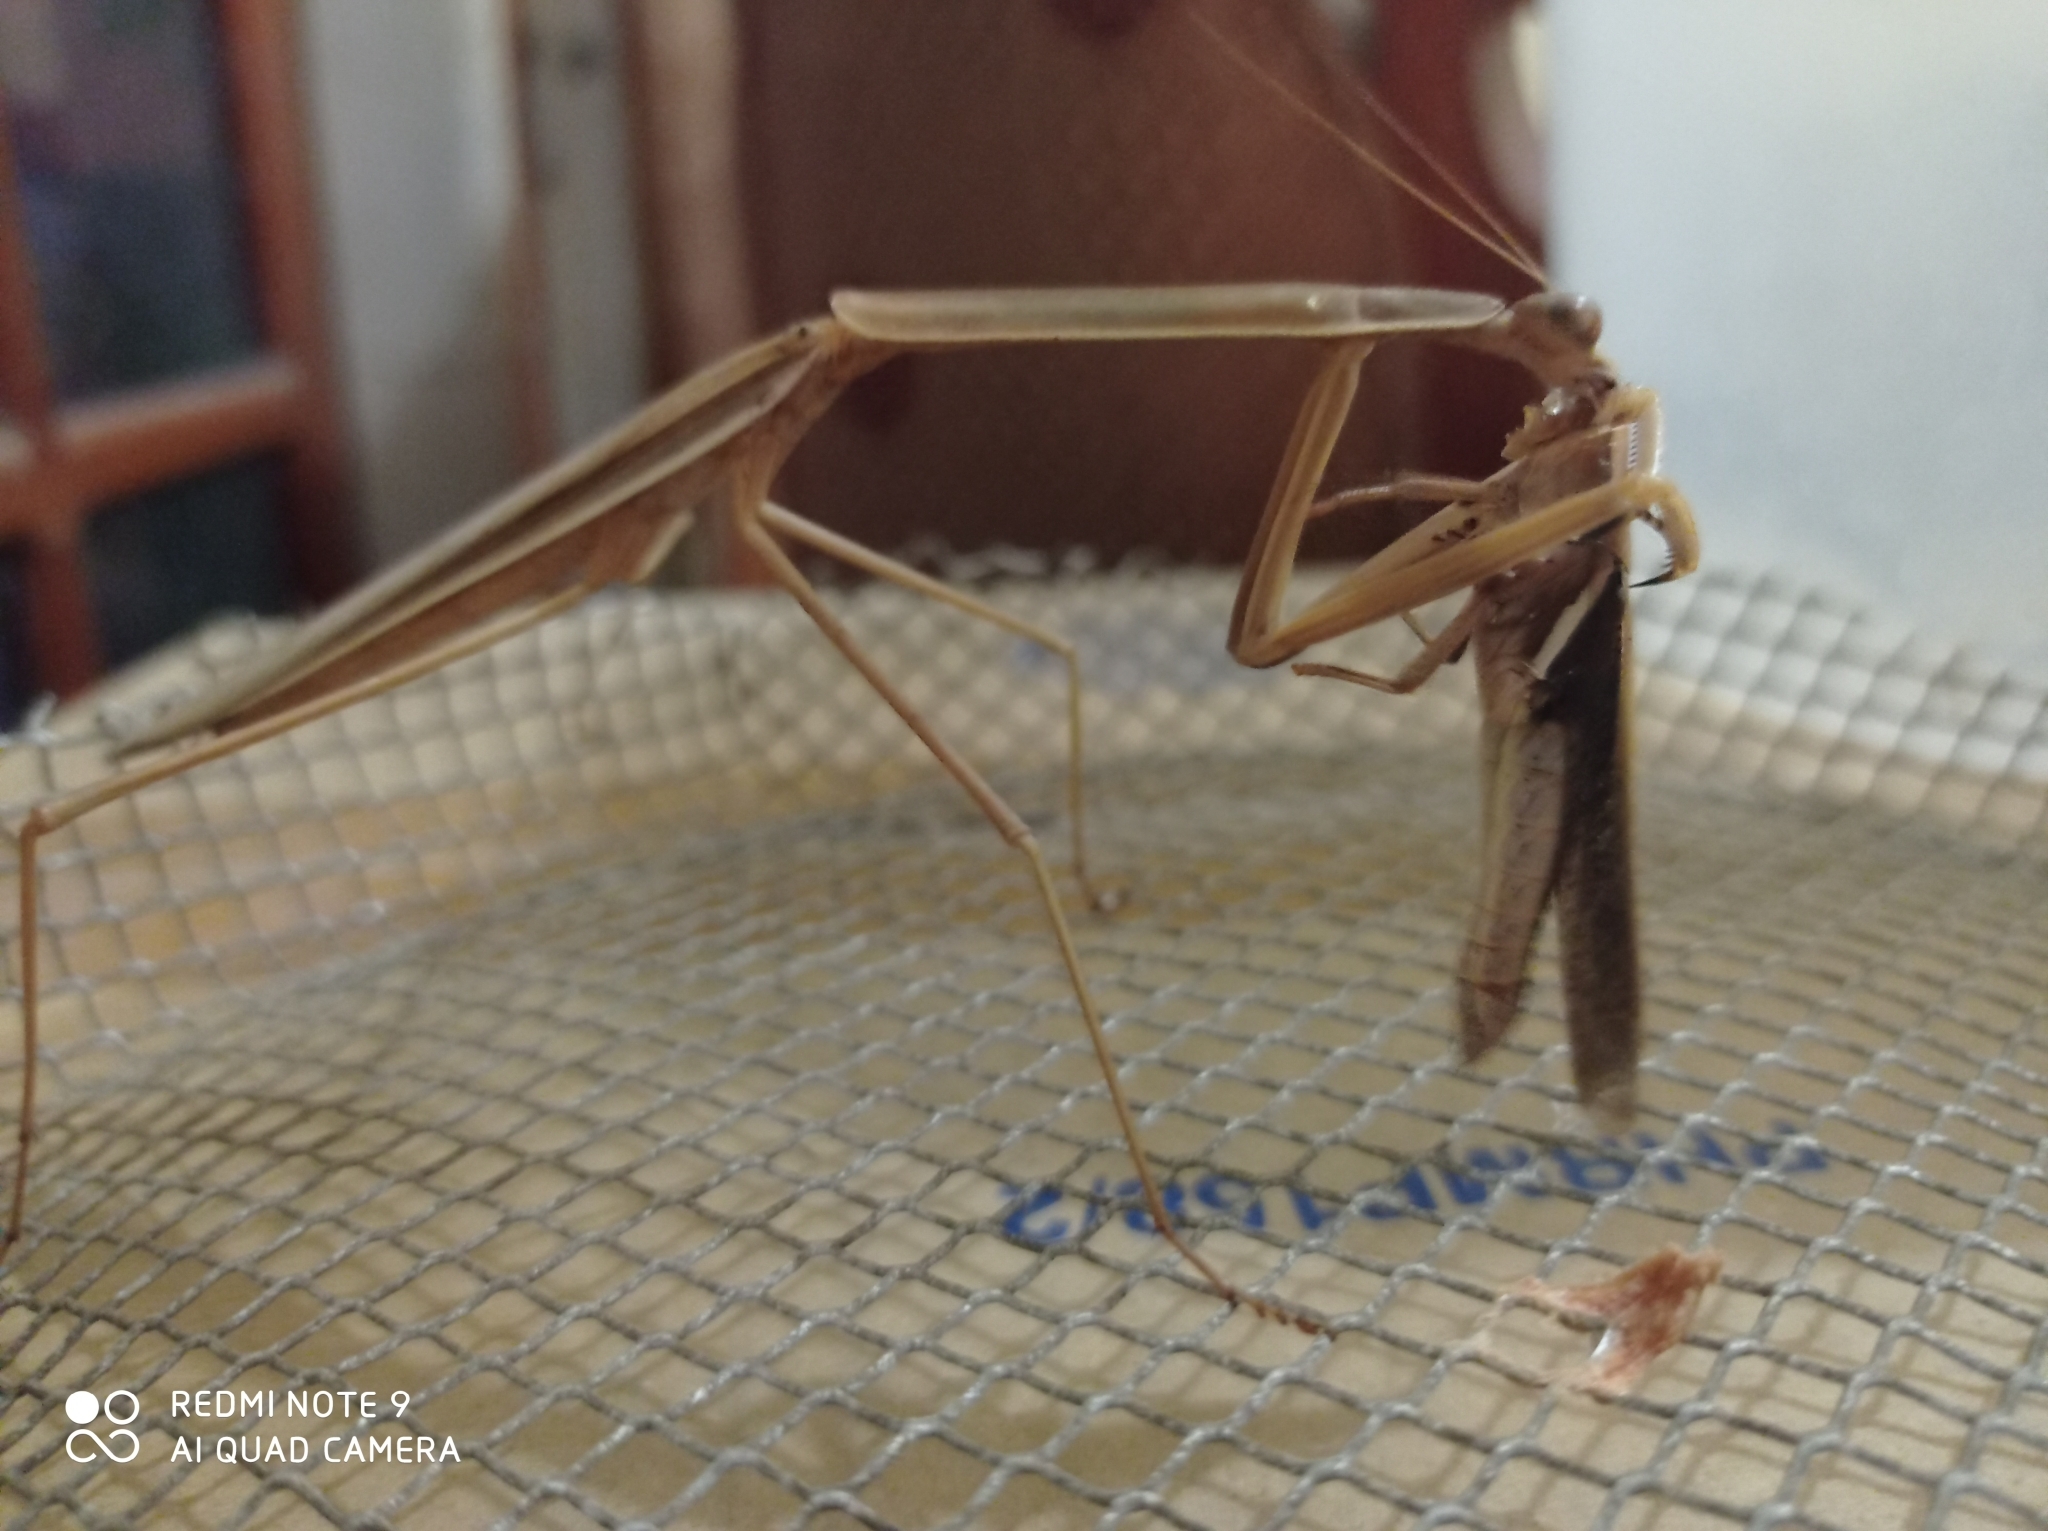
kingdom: Animalia
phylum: Arthropoda
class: Insecta
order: Mantodea
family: Mantidae
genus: Tenodera
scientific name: Tenodera
